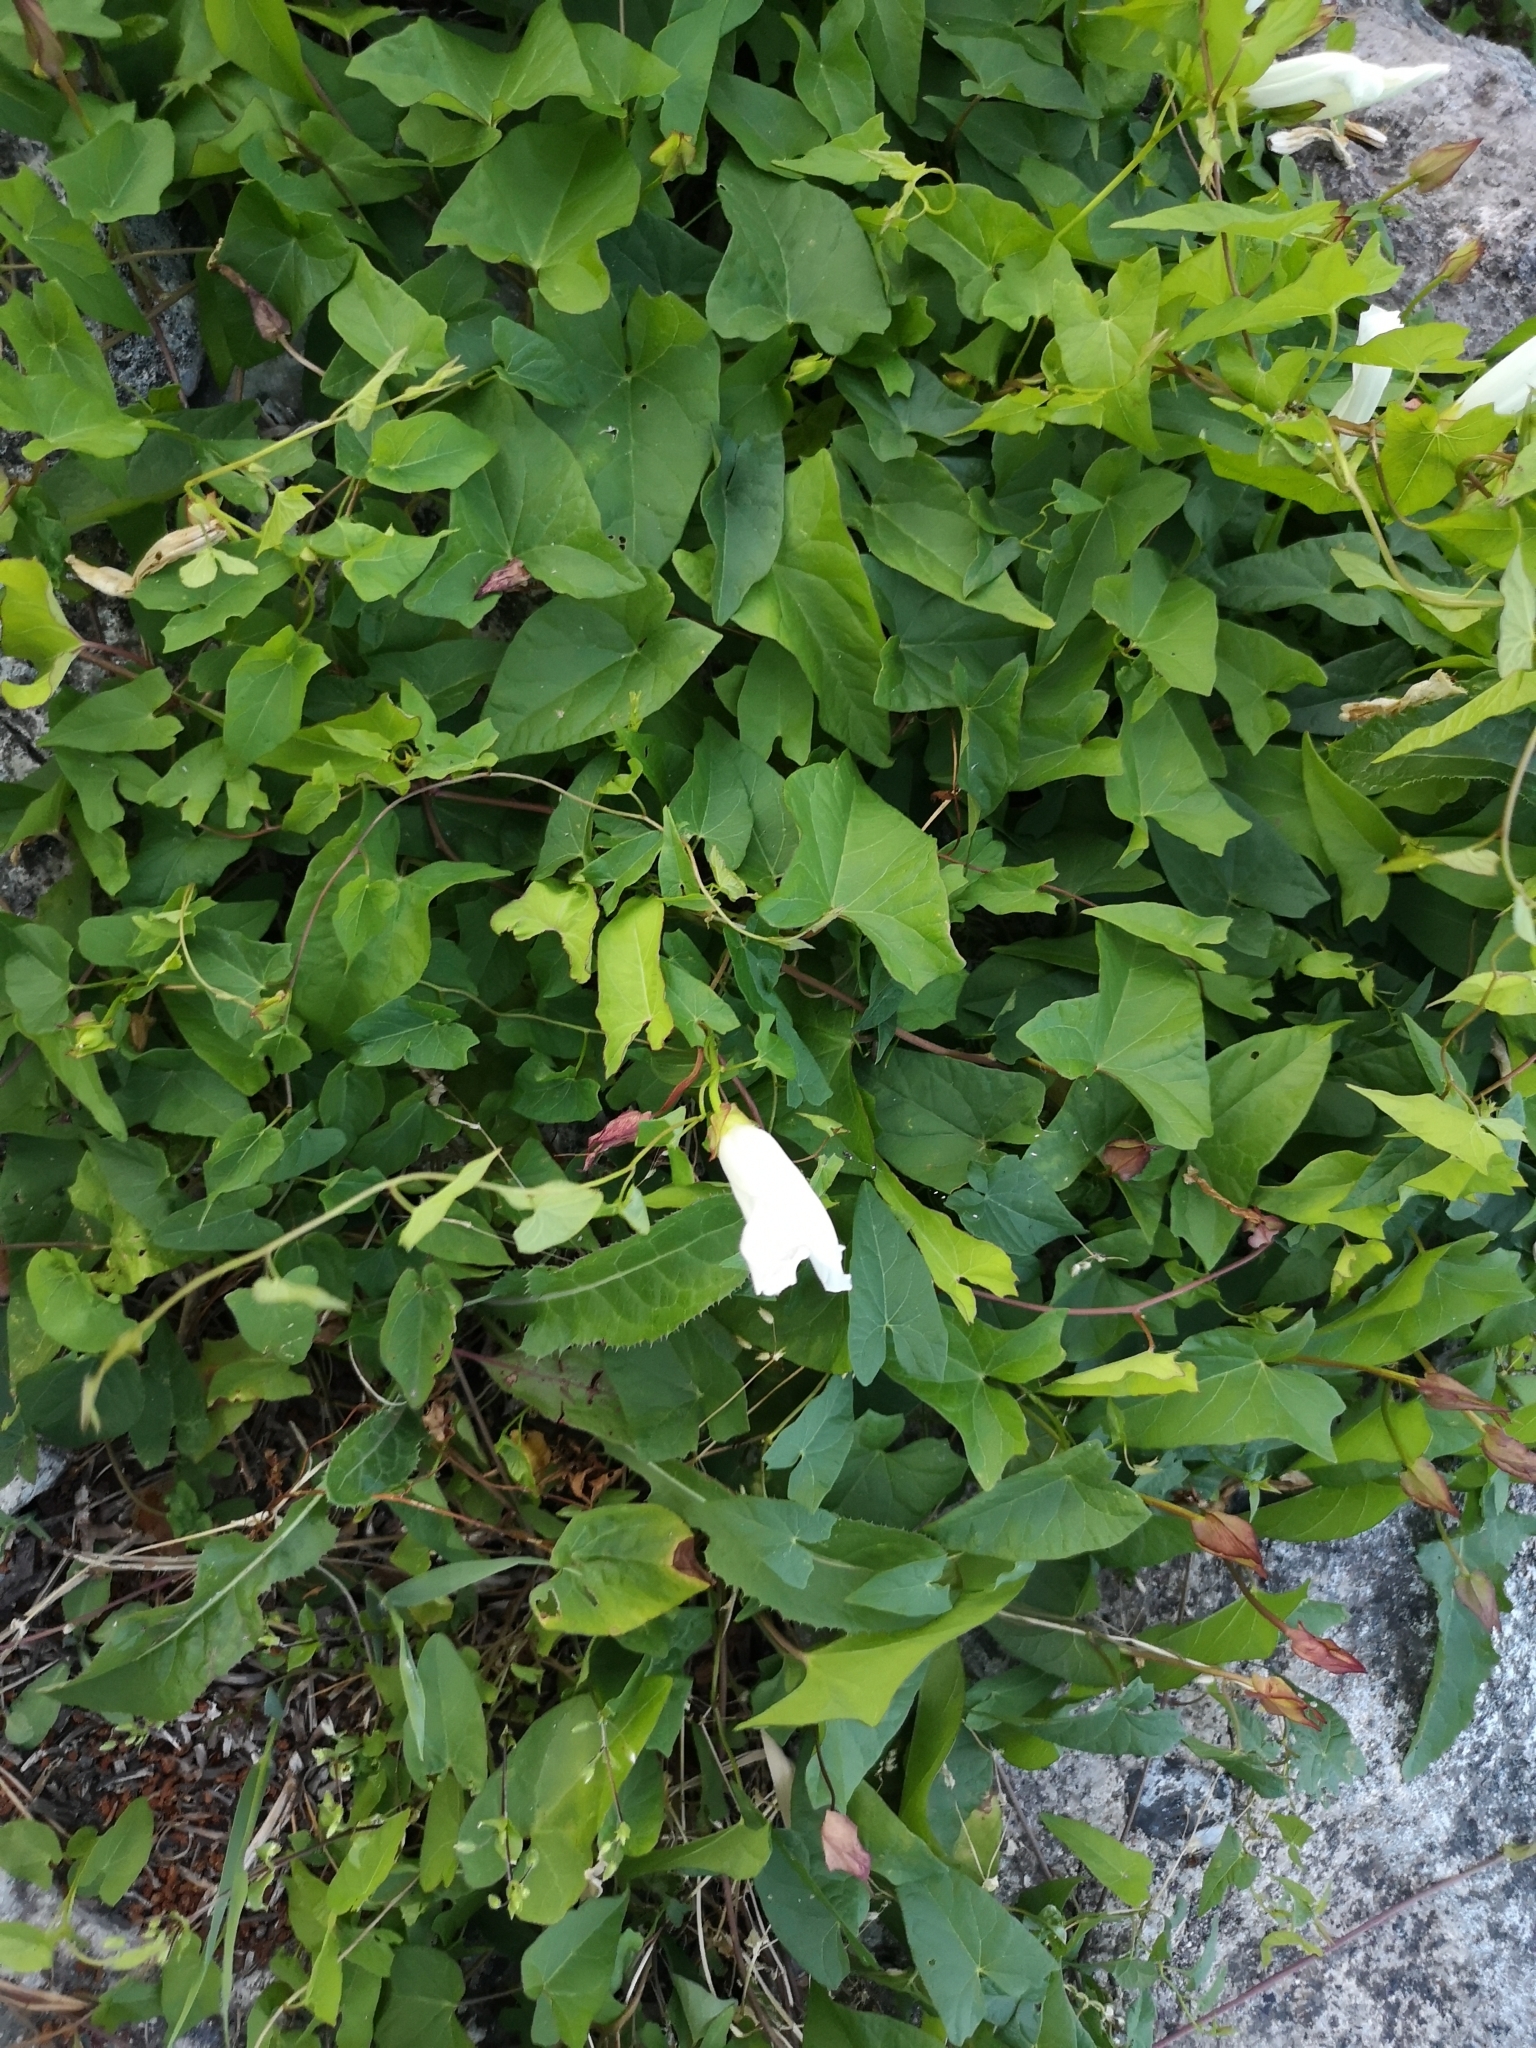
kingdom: Plantae
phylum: Tracheophyta
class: Magnoliopsida
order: Solanales
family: Convolvulaceae
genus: Calystegia
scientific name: Calystegia sepium
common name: Hedge bindweed
